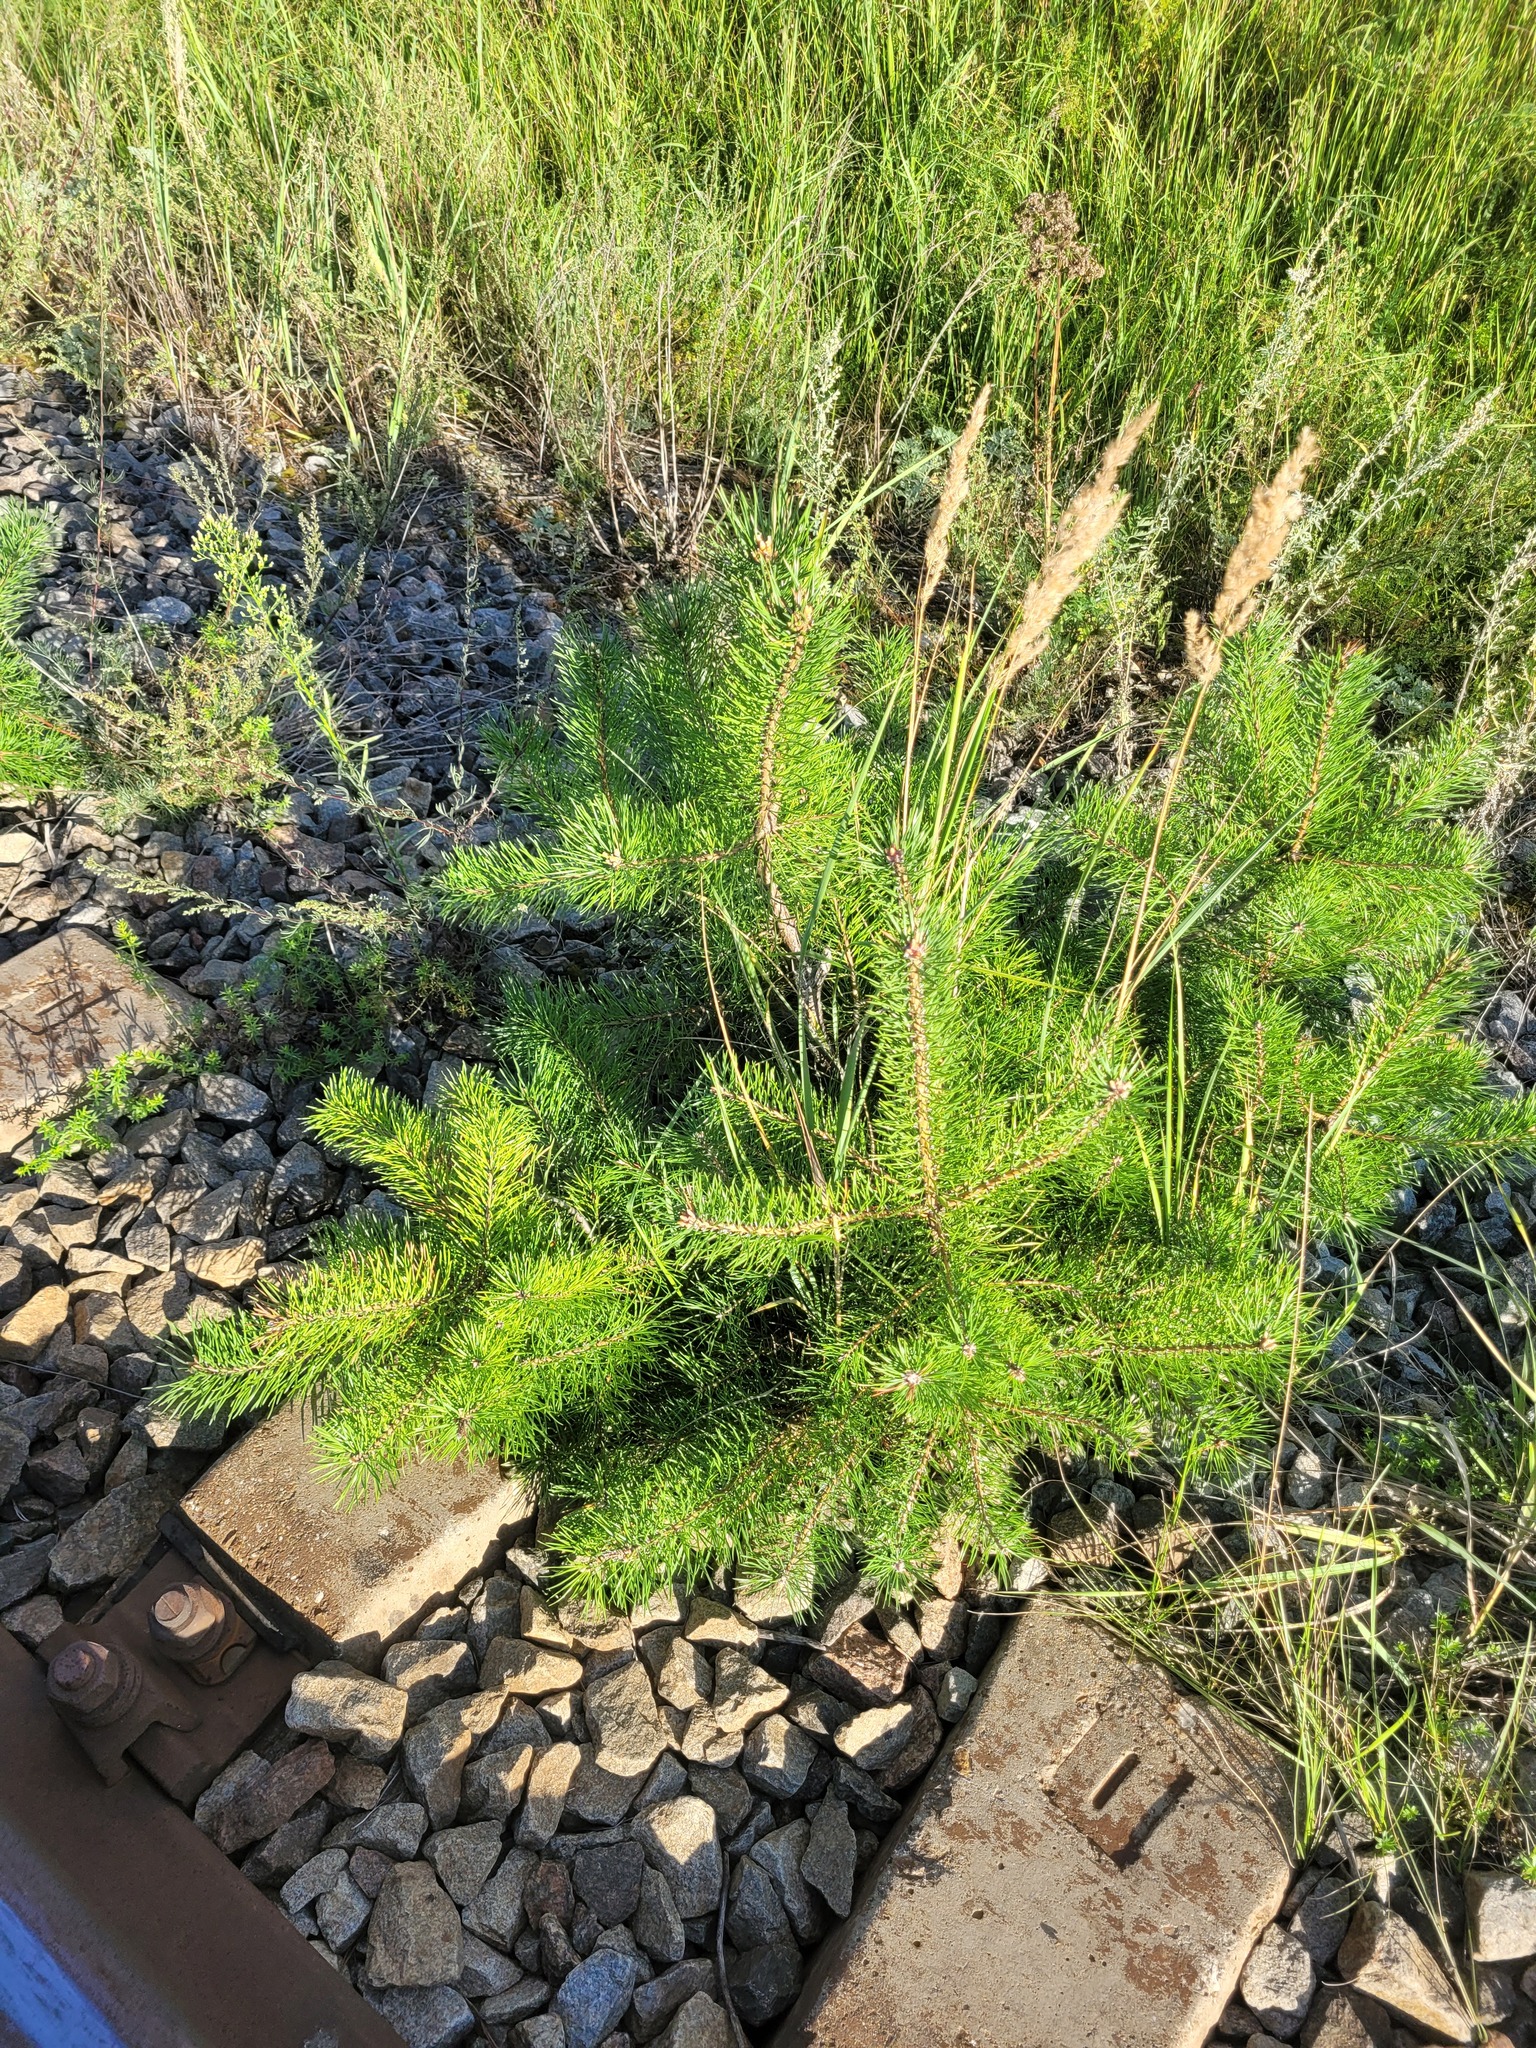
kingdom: Plantae
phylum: Tracheophyta
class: Pinopsida
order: Pinales
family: Pinaceae
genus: Pinus
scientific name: Pinus sylvestris
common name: Scots pine
